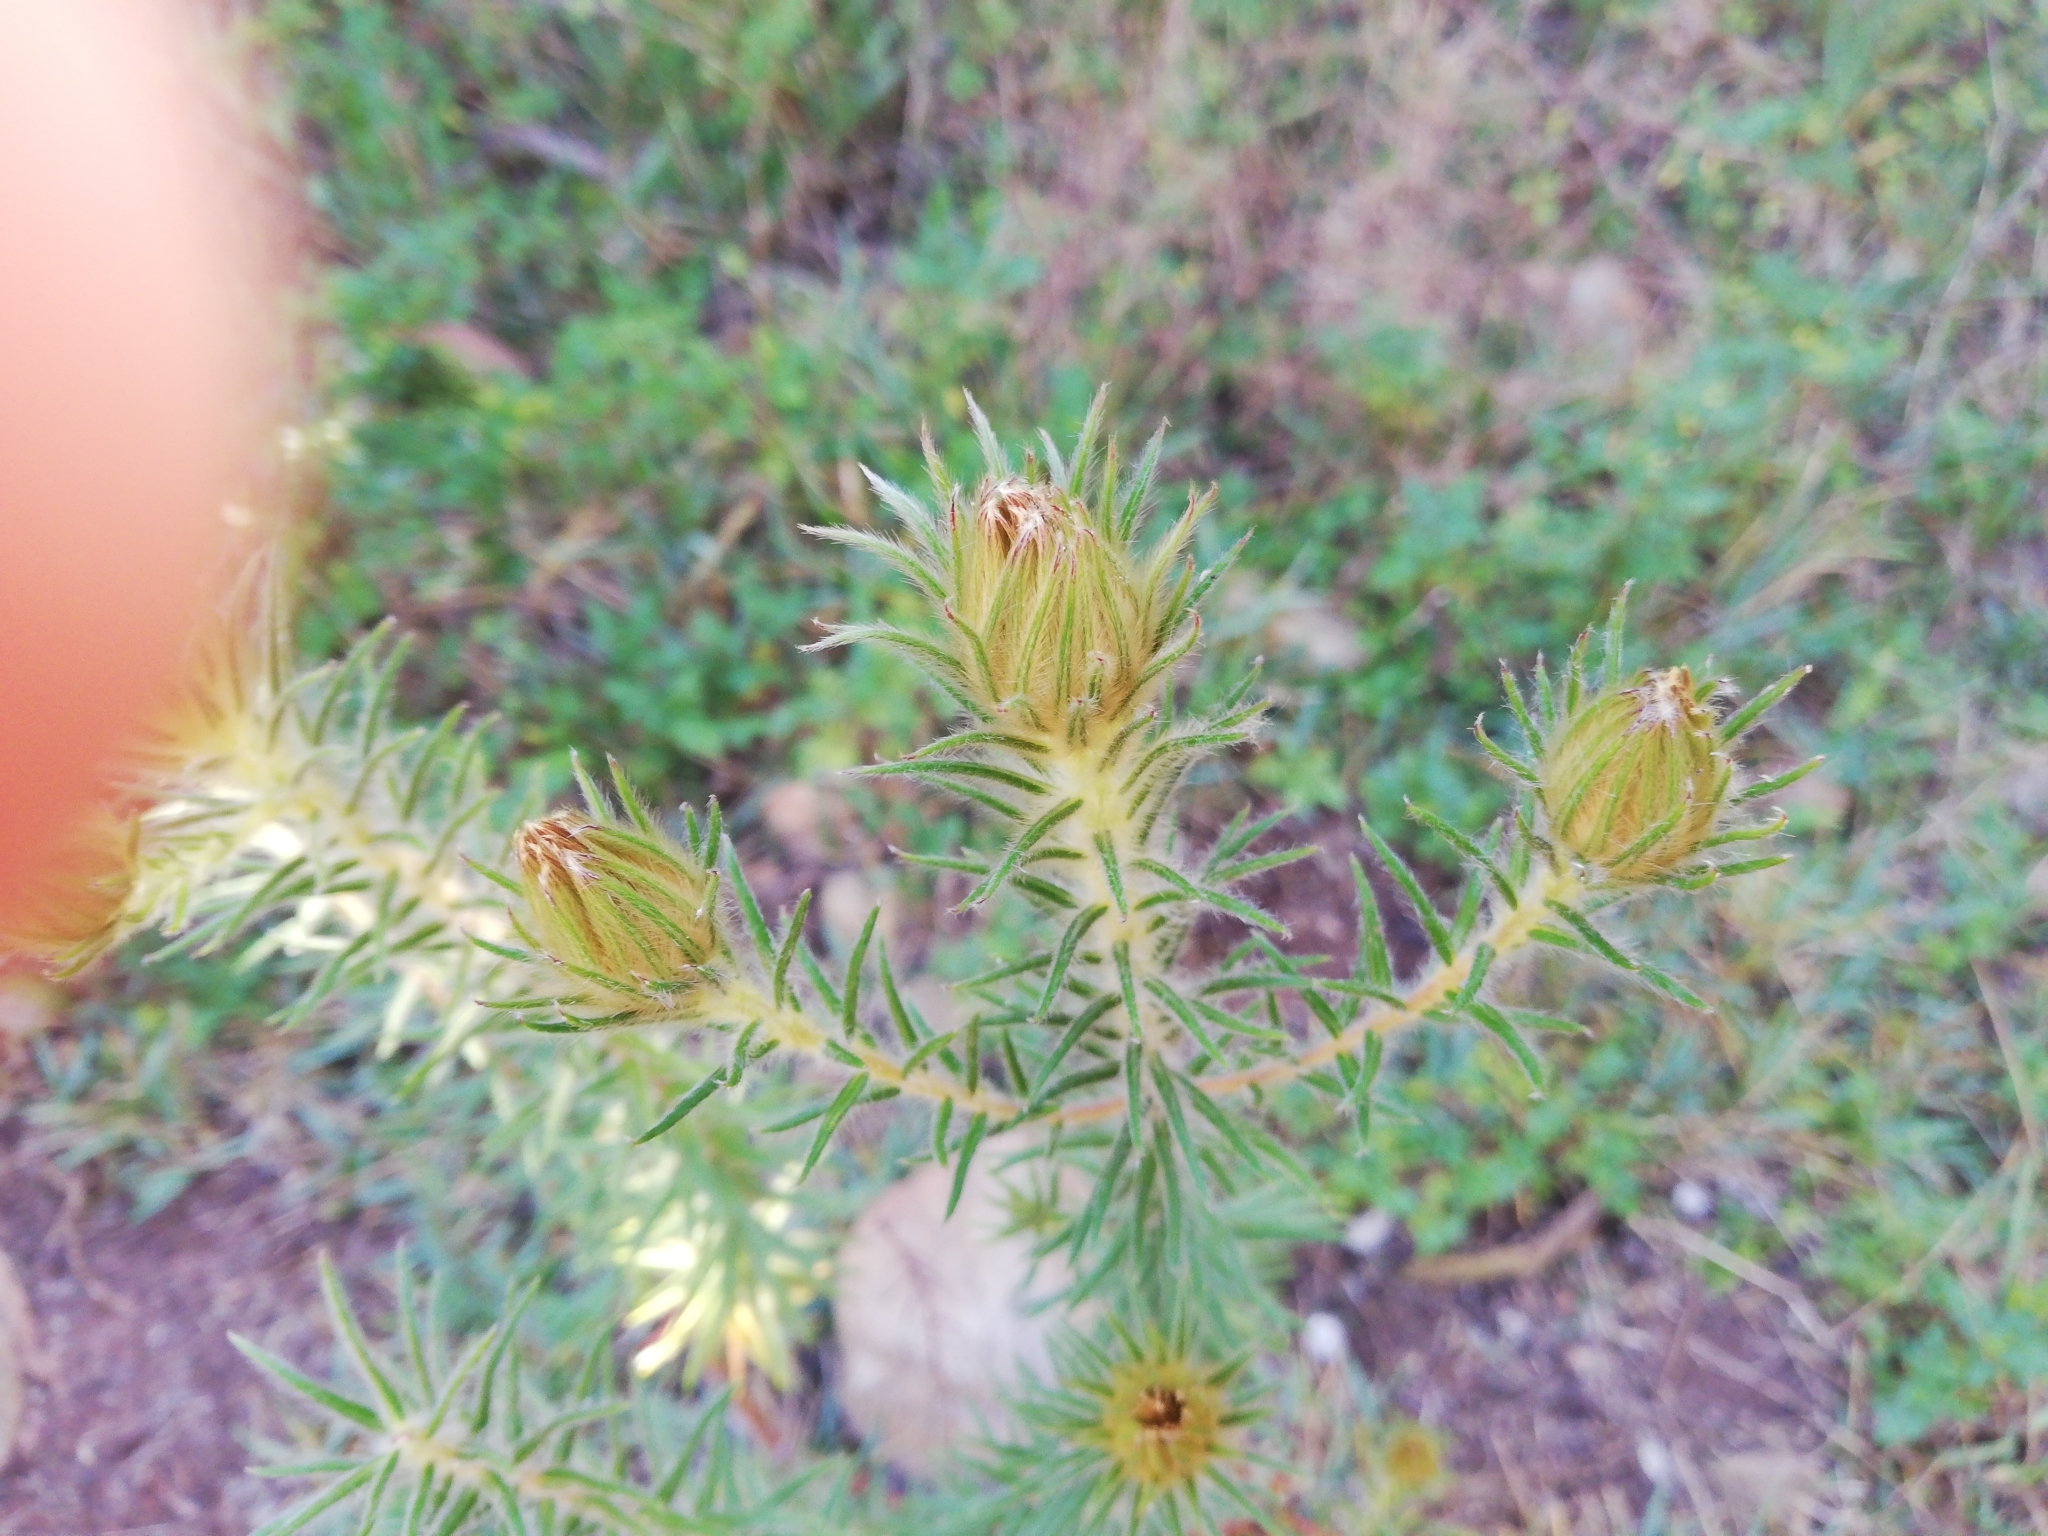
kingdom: Plantae
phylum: Tracheophyta
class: Magnoliopsida
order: Rosales
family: Rhamnaceae
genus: Phylica
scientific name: Phylica pubescens
